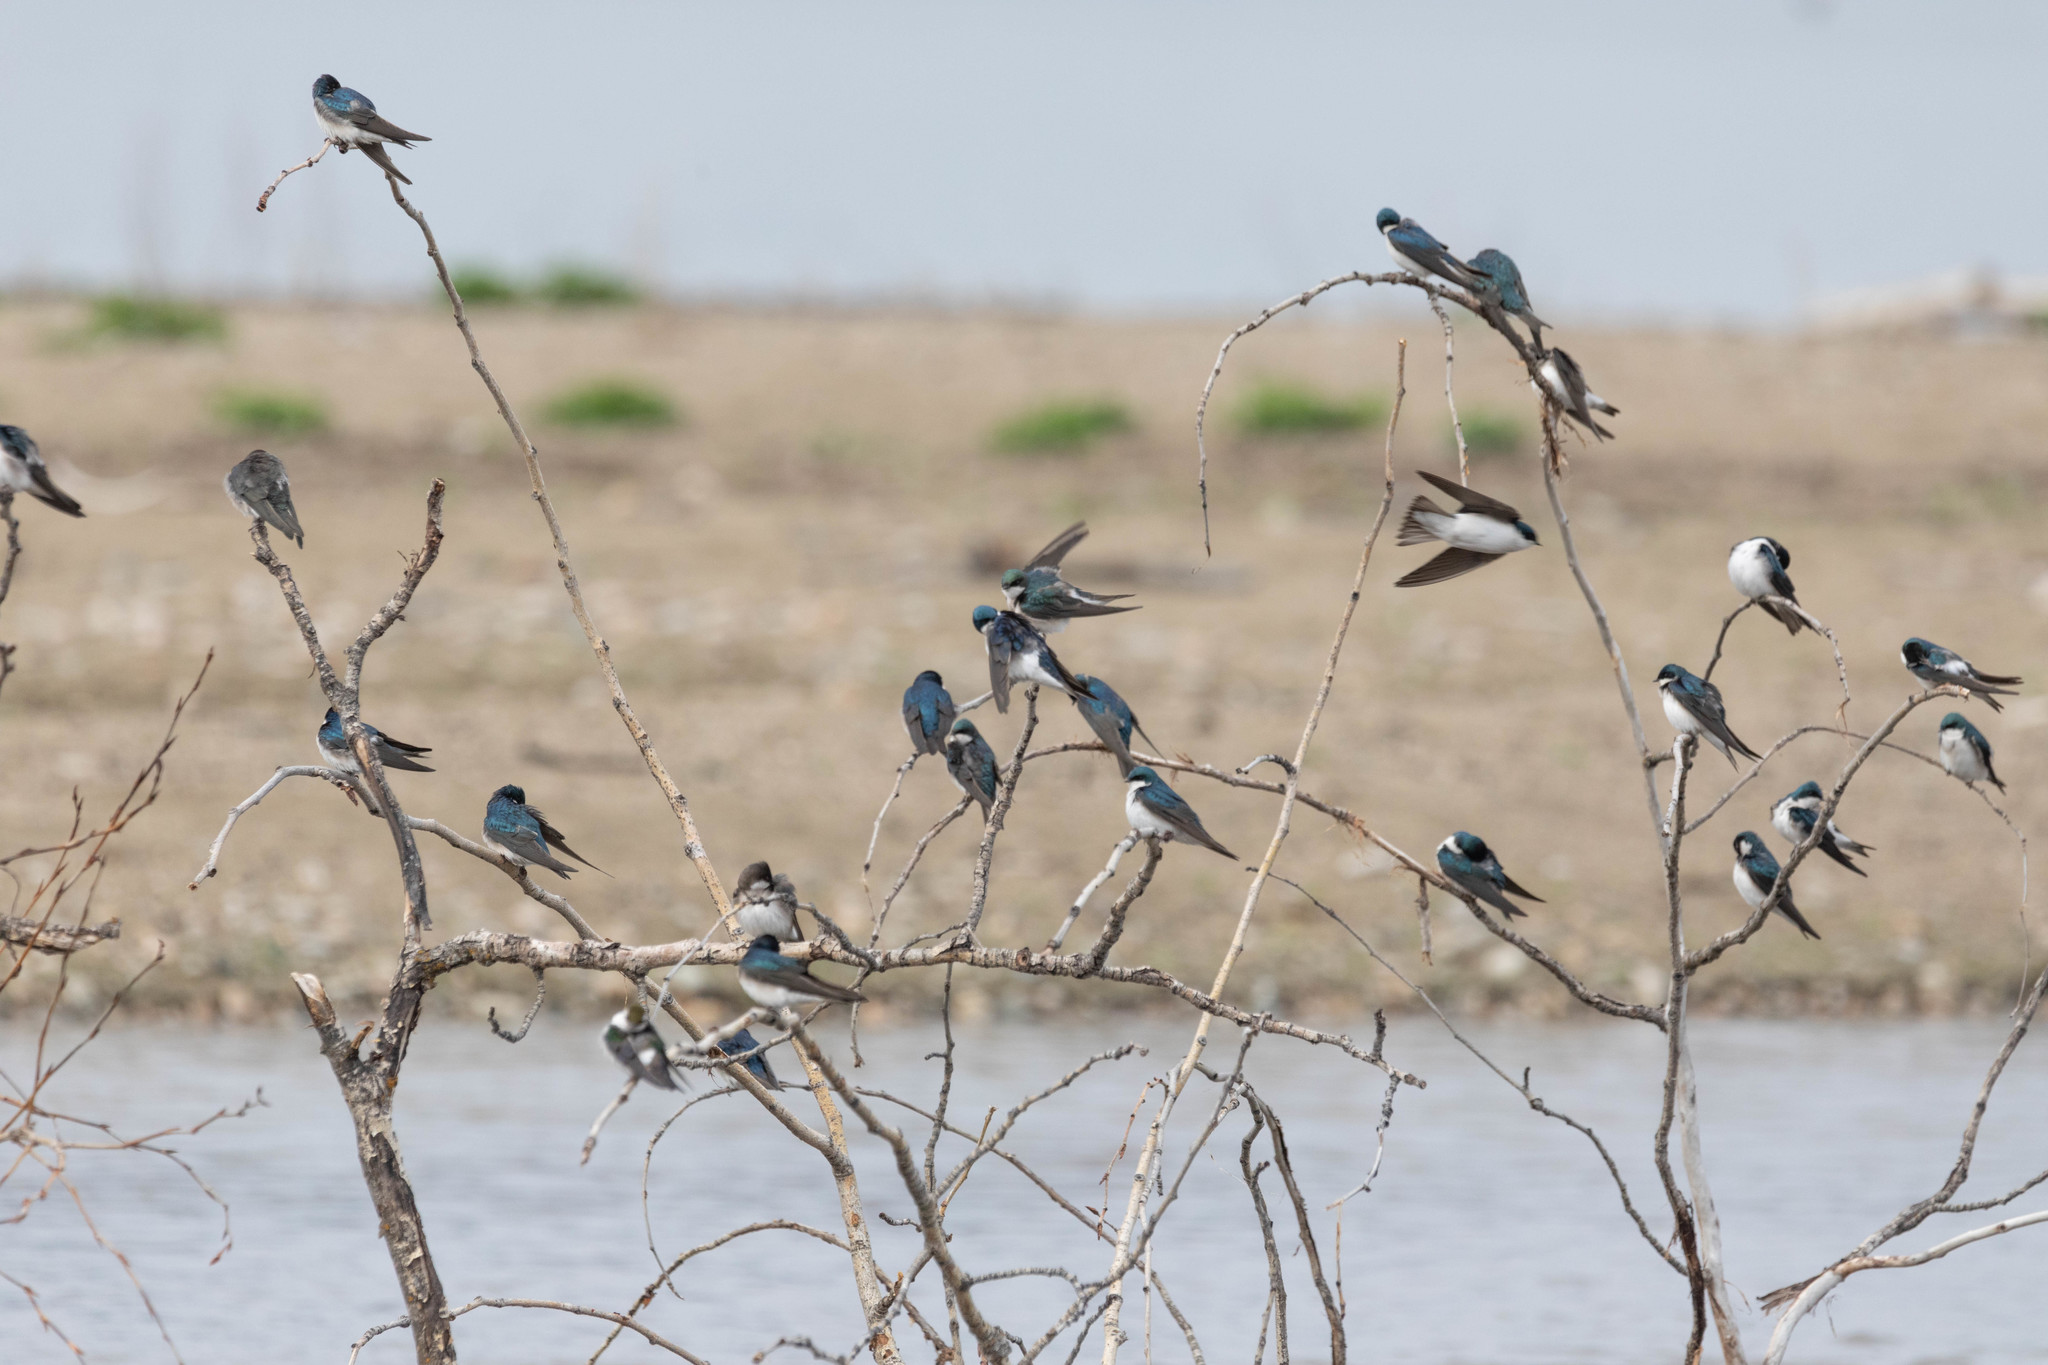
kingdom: Animalia
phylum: Chordata
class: Aves
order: Passeriformes
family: Hirundinidae
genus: Tachycineta
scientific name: Tachycineta bicolor
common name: Tree swallow
